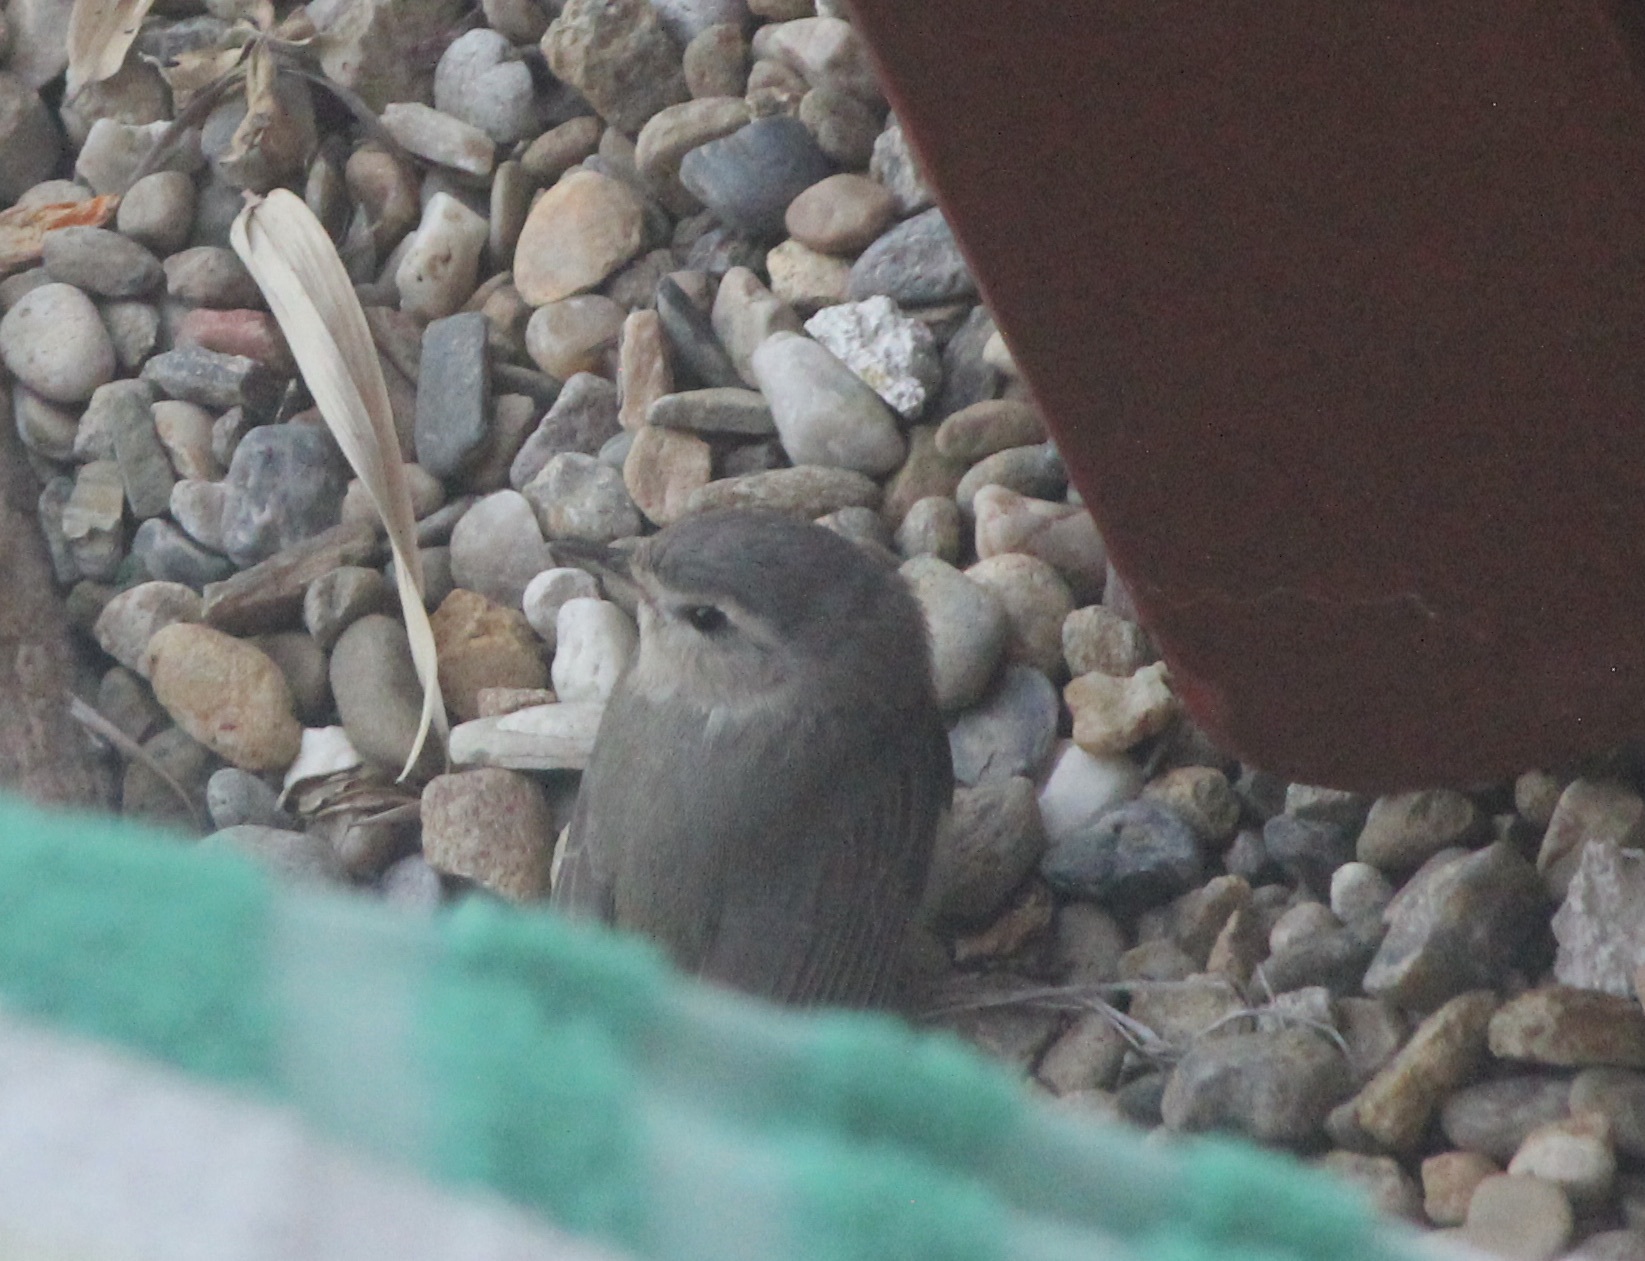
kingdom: Animalia
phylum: Chordata
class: Aves
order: Passeriformes
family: Vireonidae
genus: Vireo
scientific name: Vireo gilvus
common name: Warbling vireo
